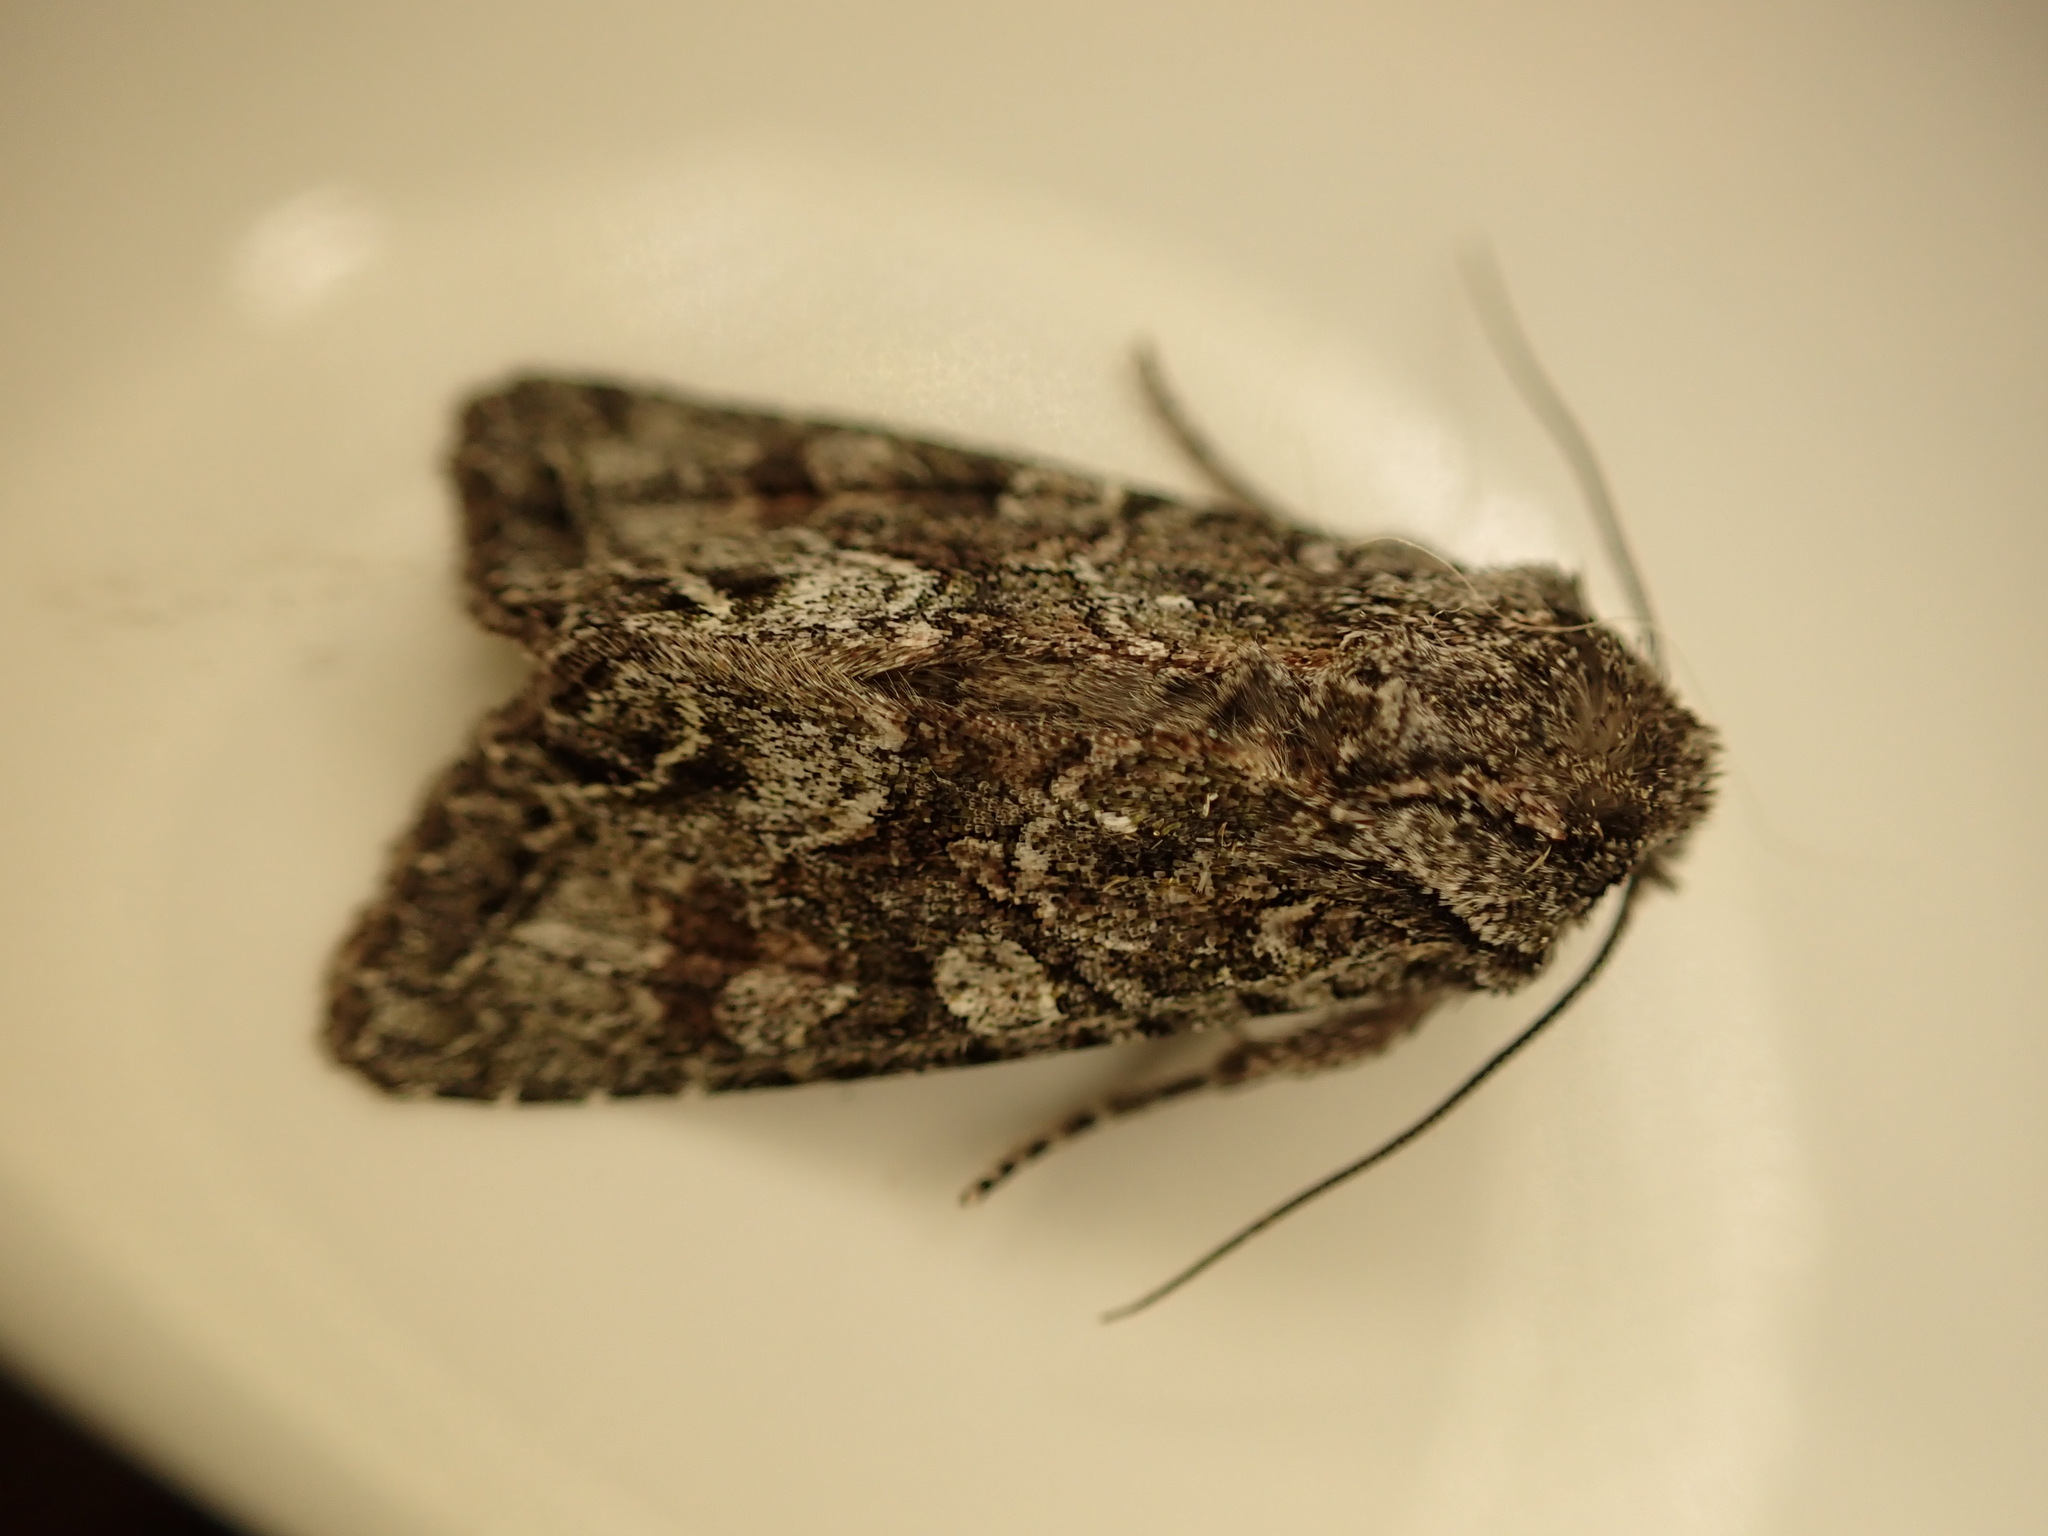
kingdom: Animalia
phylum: Arthropoda
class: Insecta
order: Lepidoptera
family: Noctuidae
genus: Ichneutica
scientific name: Ichneutica mutans
